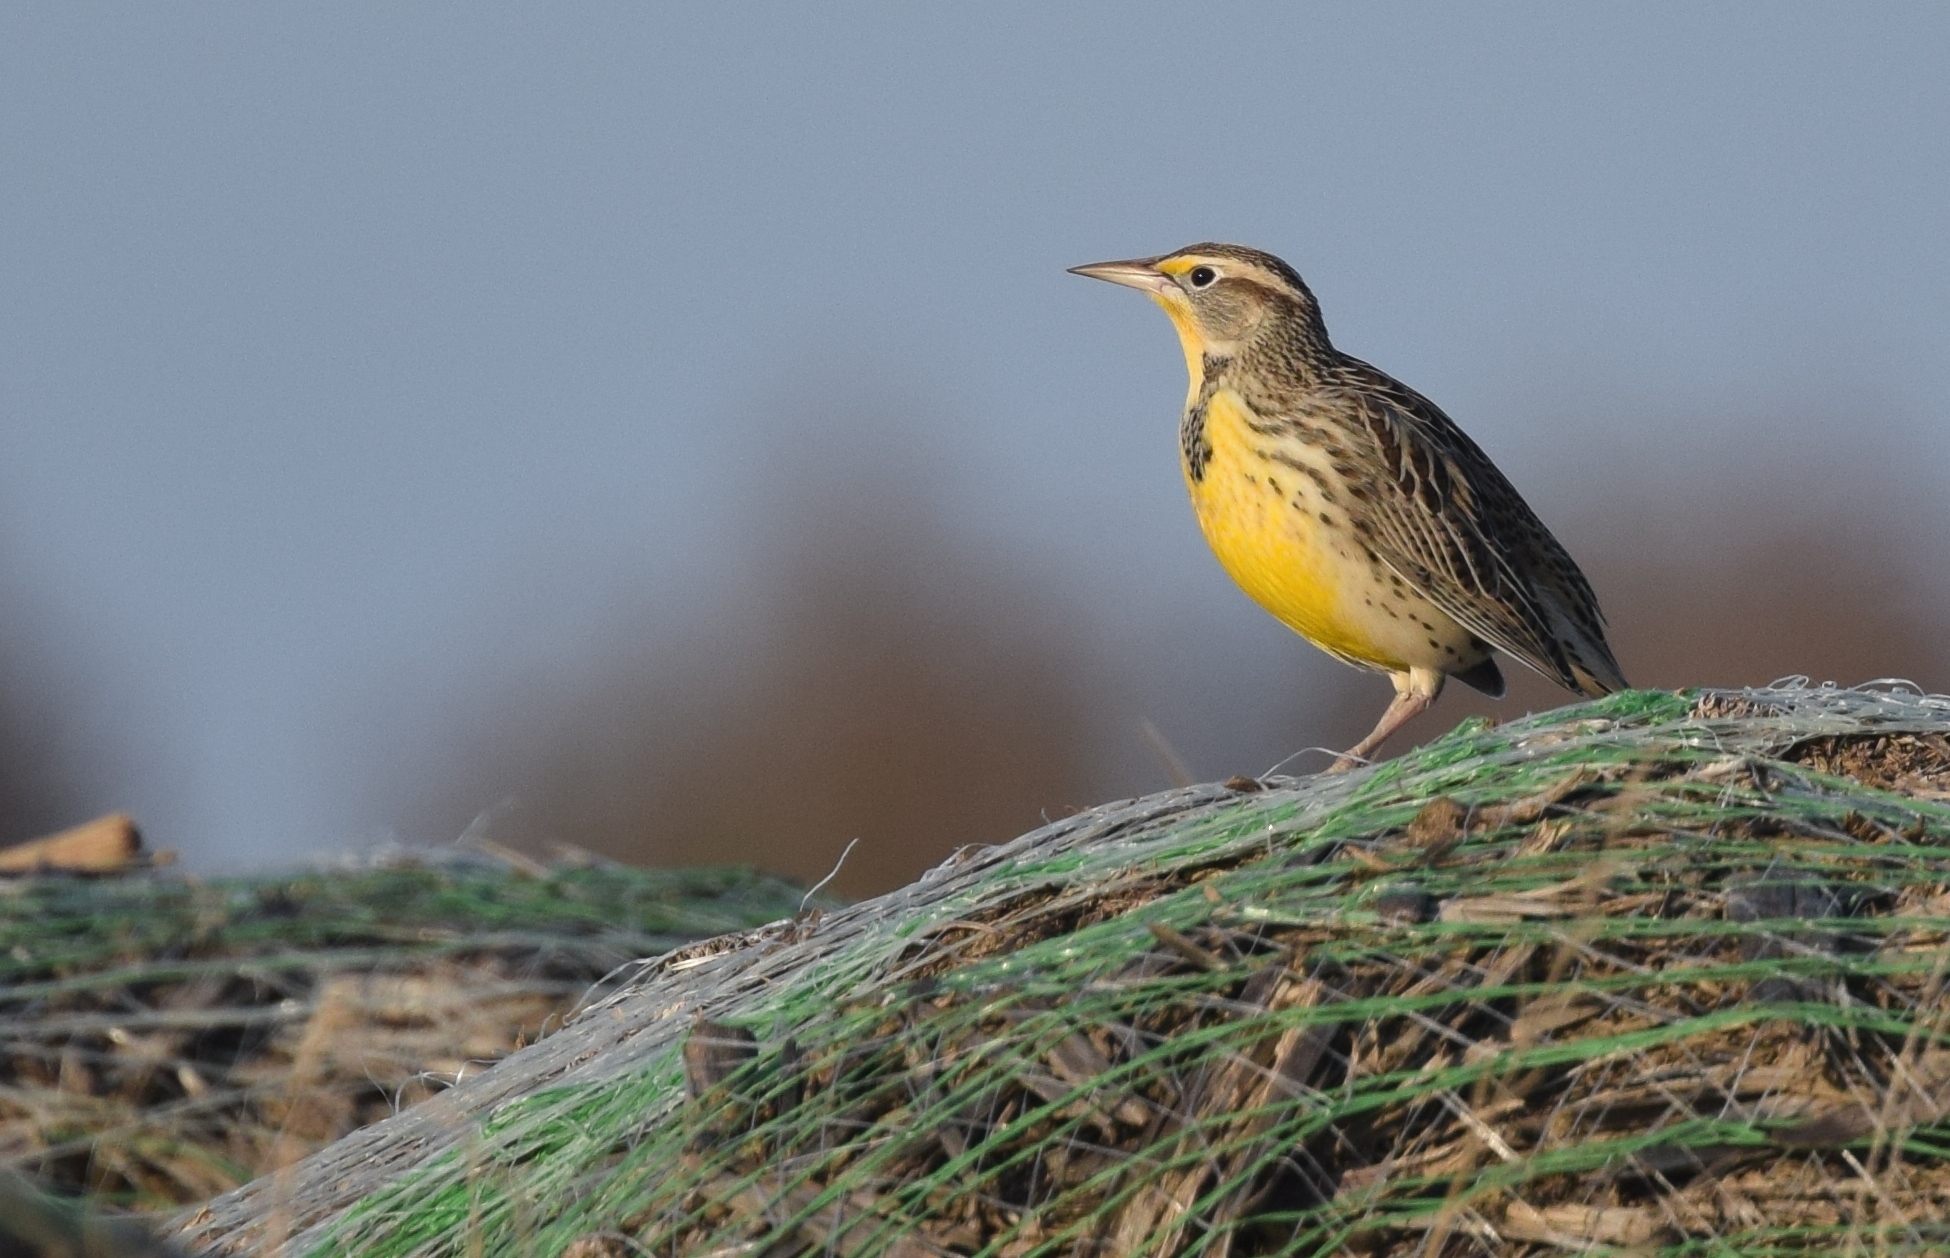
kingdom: Animalia
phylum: Chordata
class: Aves
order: Passeriformes
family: Icteridae
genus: Sturnella
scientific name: Sturnella neglecta
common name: Western meadowlark
